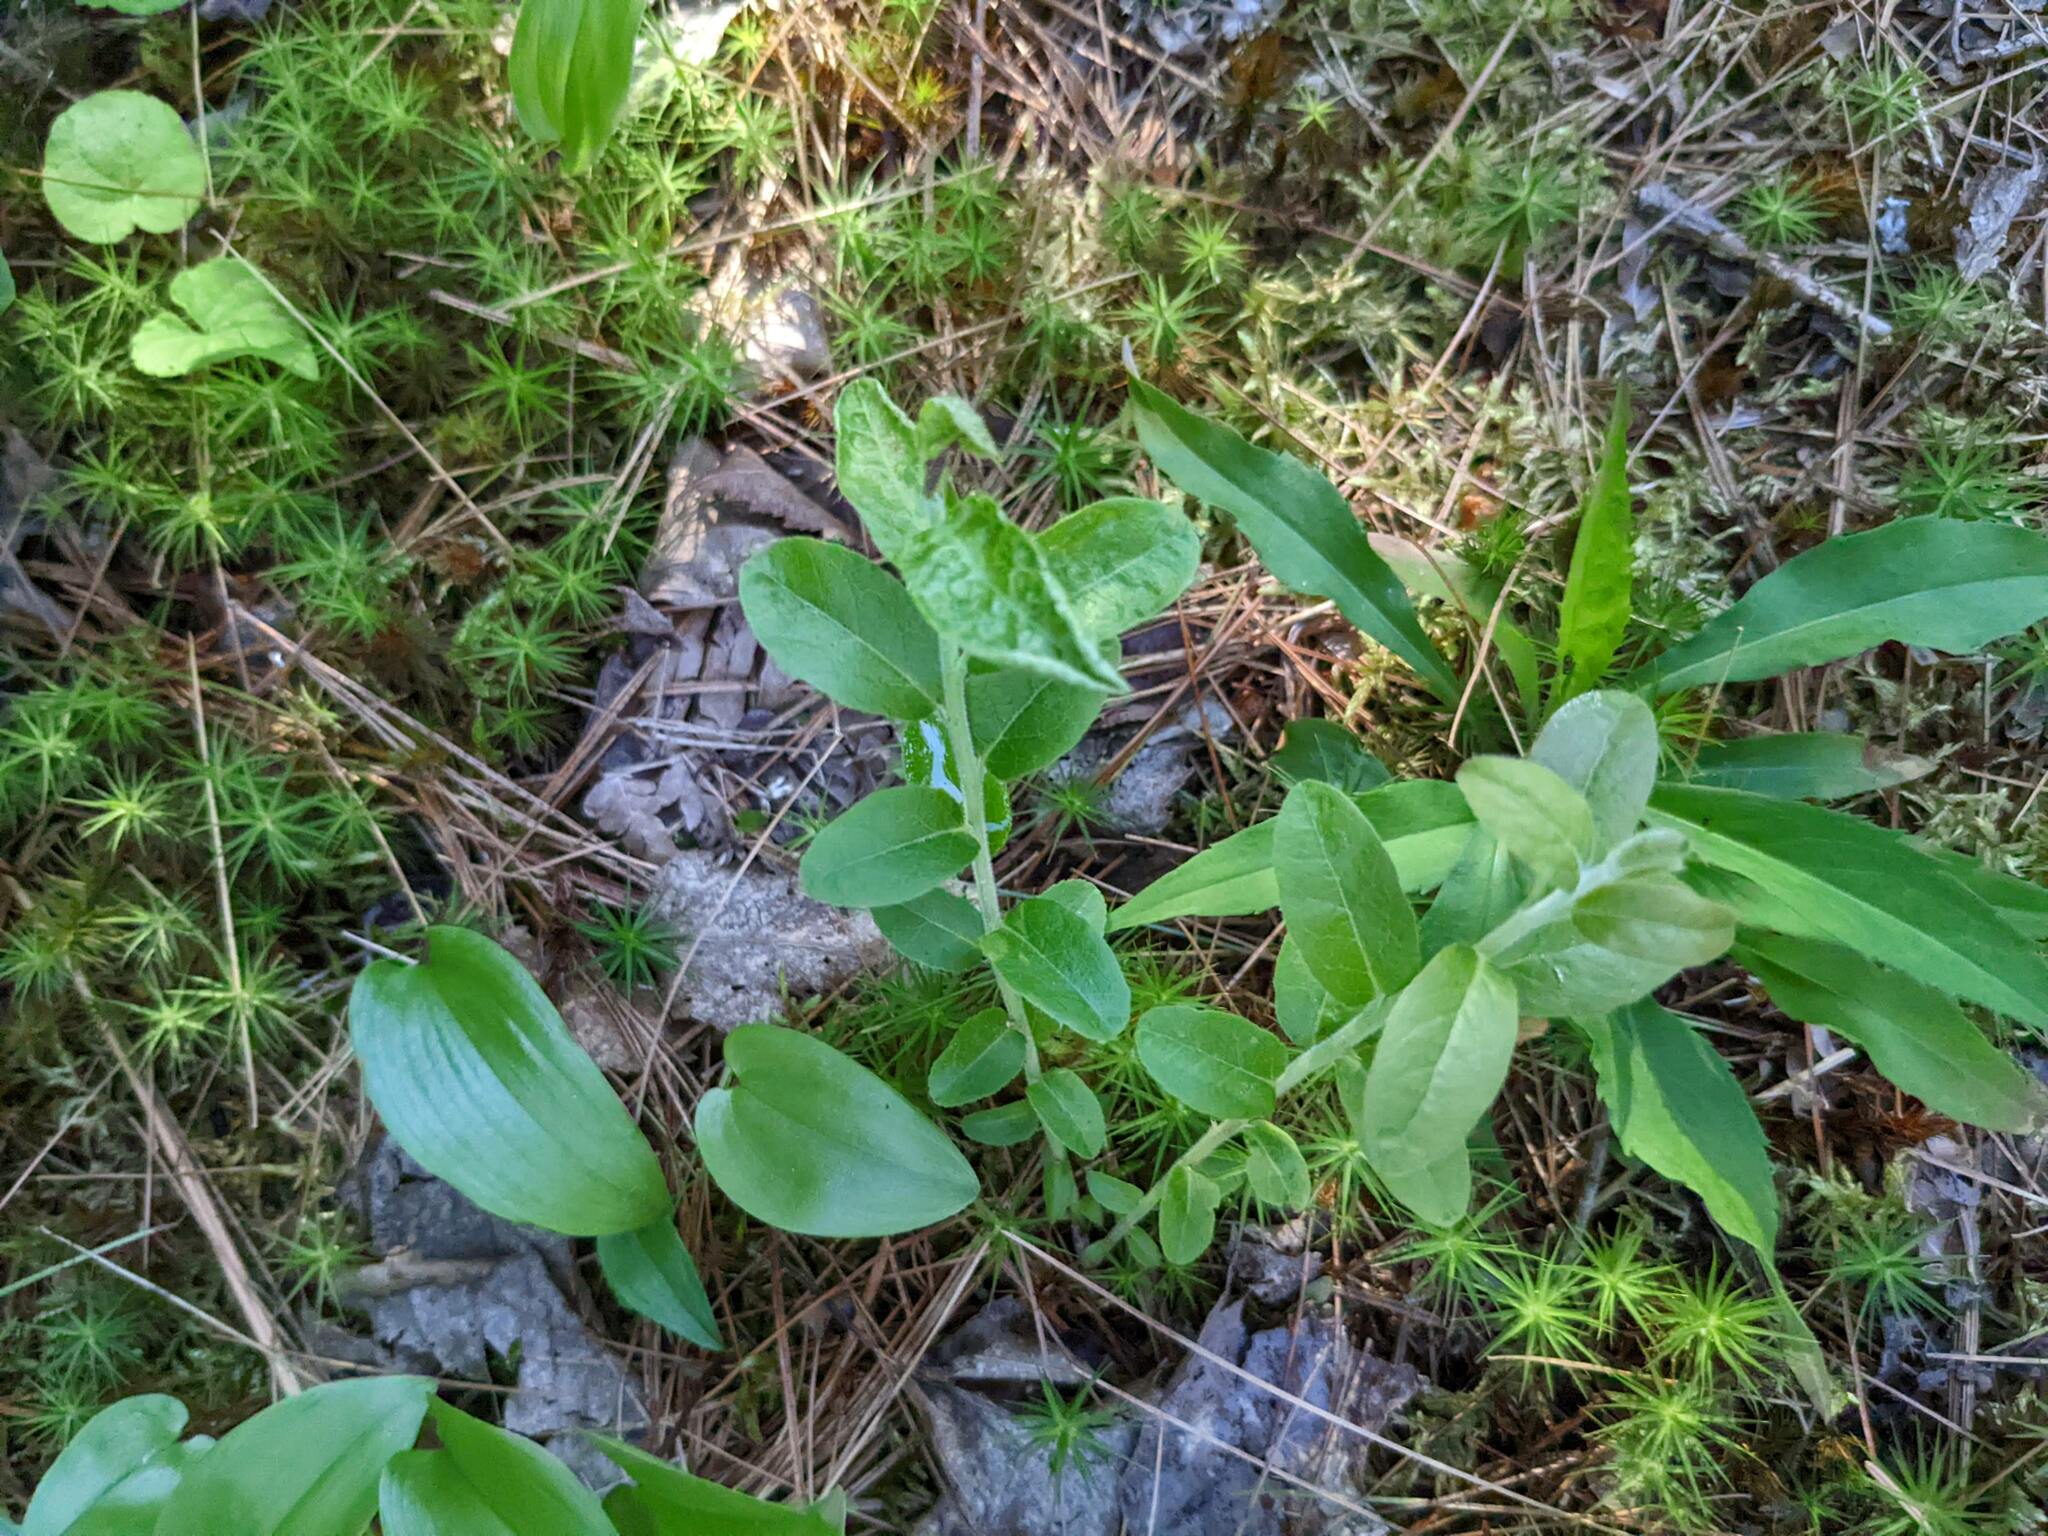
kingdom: Plantae
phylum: Tracheophyta
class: Liliopsida
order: Asparagales
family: Asparagaceae
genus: Maianthemum
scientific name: Maianthemum canadense
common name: False lily-of-the-valley
